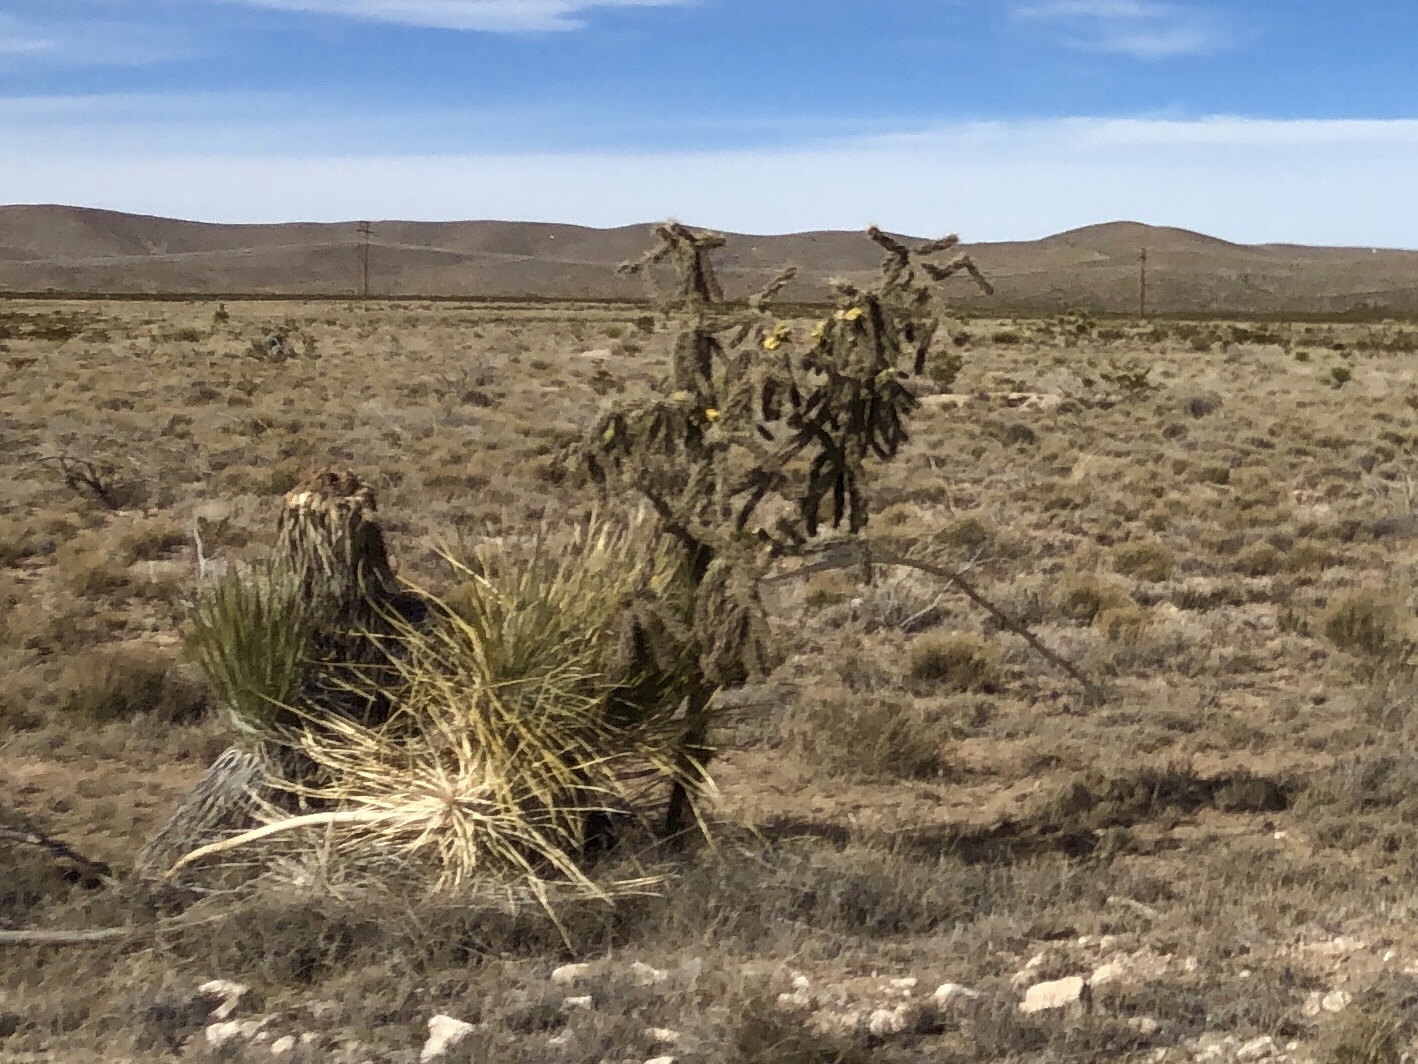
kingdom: Plantae
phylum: Tracheophyta
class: Magnoliopsida
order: Caryophyllales
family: Cactaceae
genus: Cylindropuntia
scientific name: Cylindropuntia imbricata
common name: Candelabrum cactus
